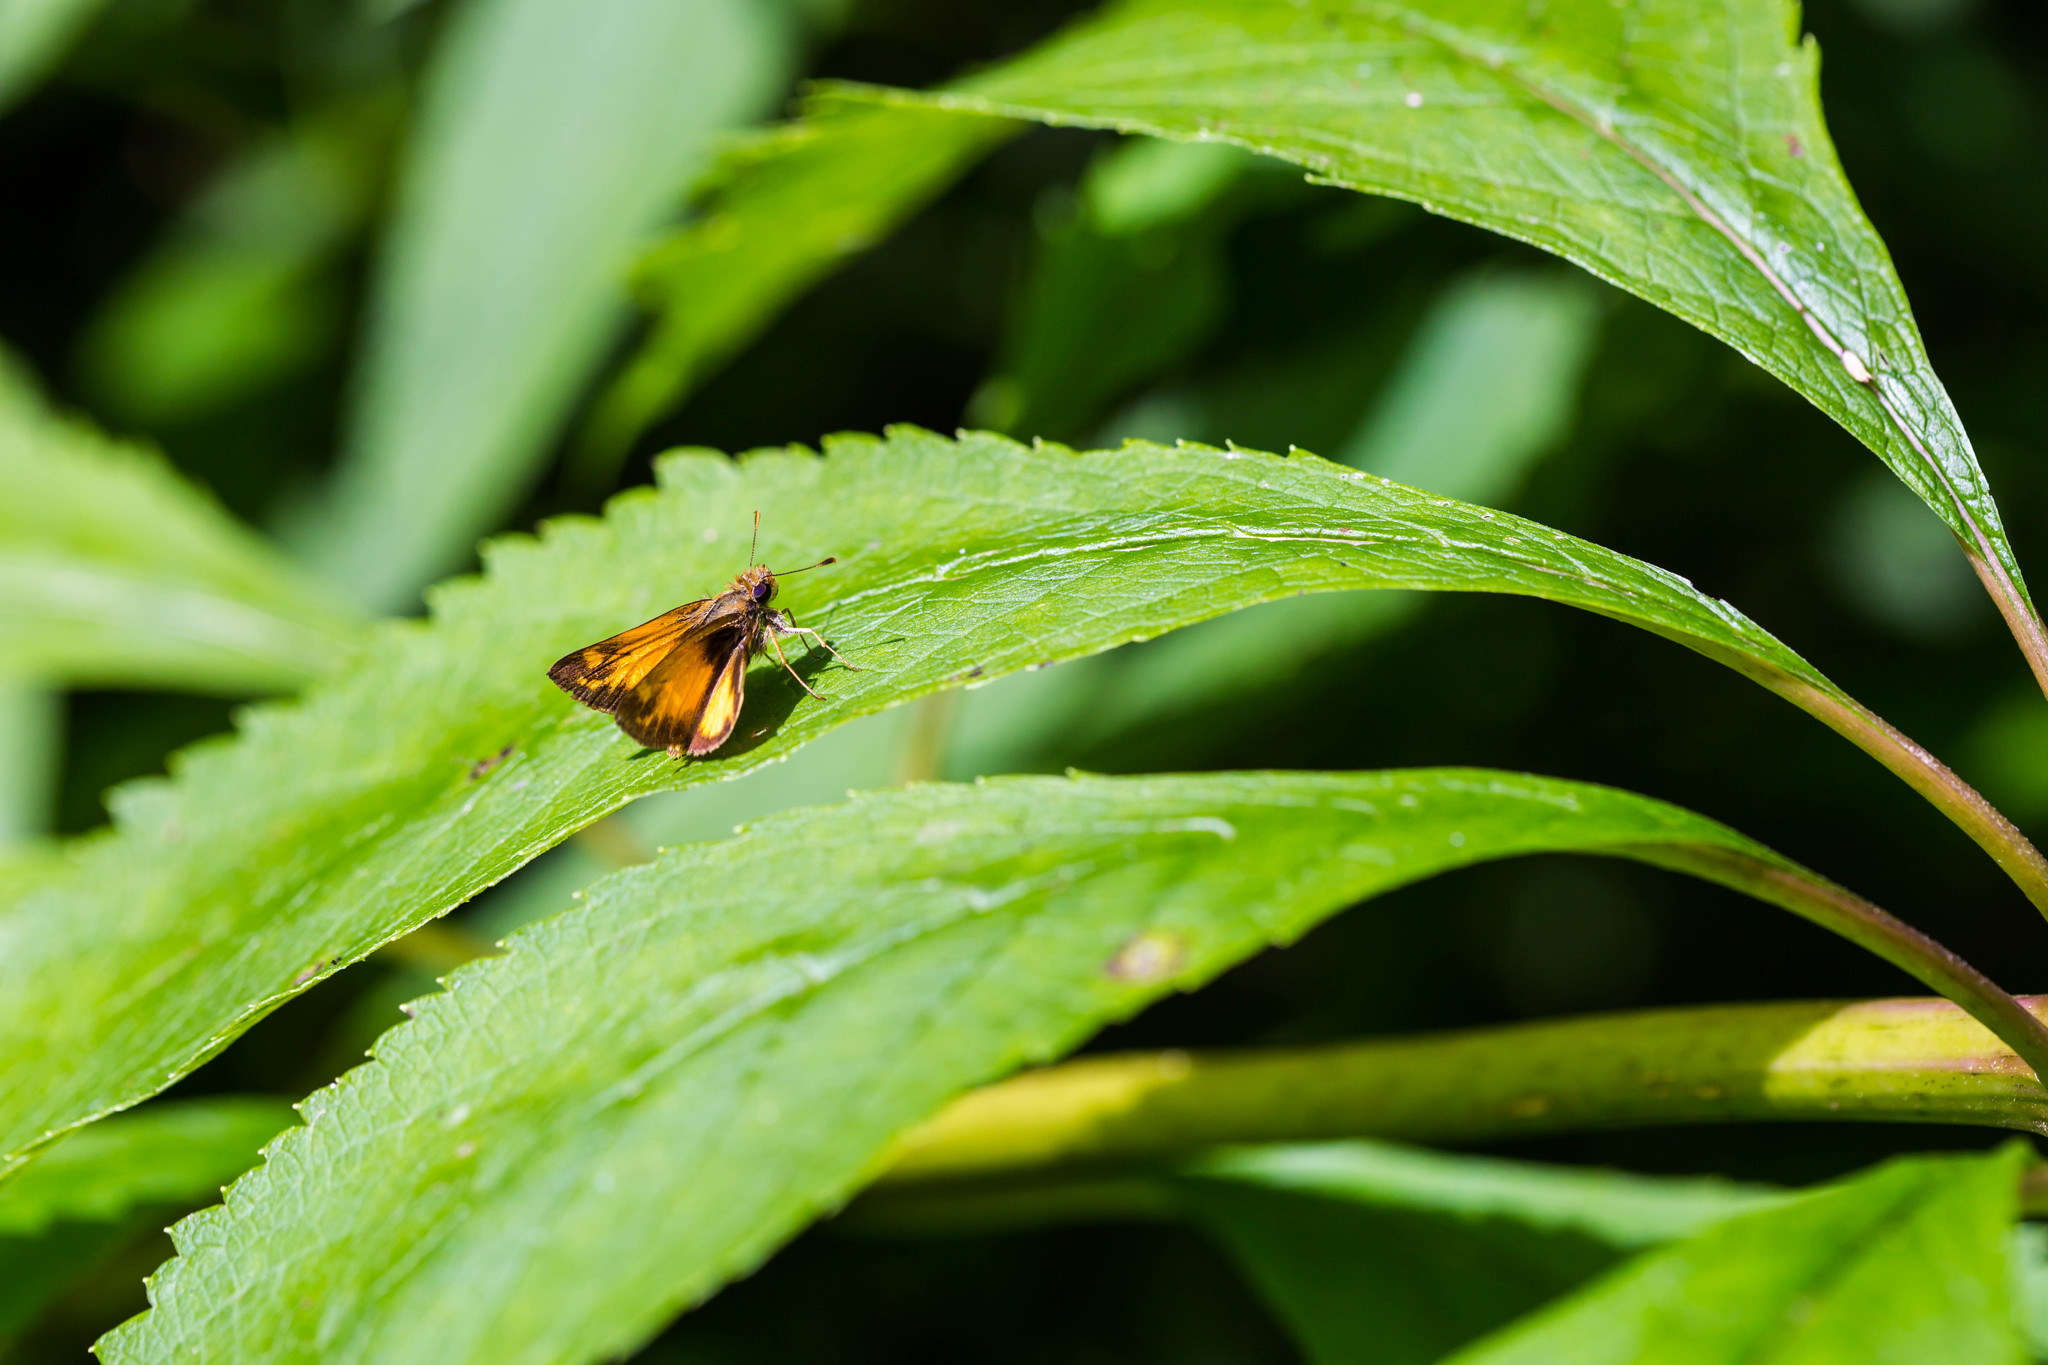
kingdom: Animalia
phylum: Arthropoda
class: Insecta
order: Lepidoptera
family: Hesperiidae
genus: Lon
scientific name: Lon zabulon
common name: Zabulon skipper
